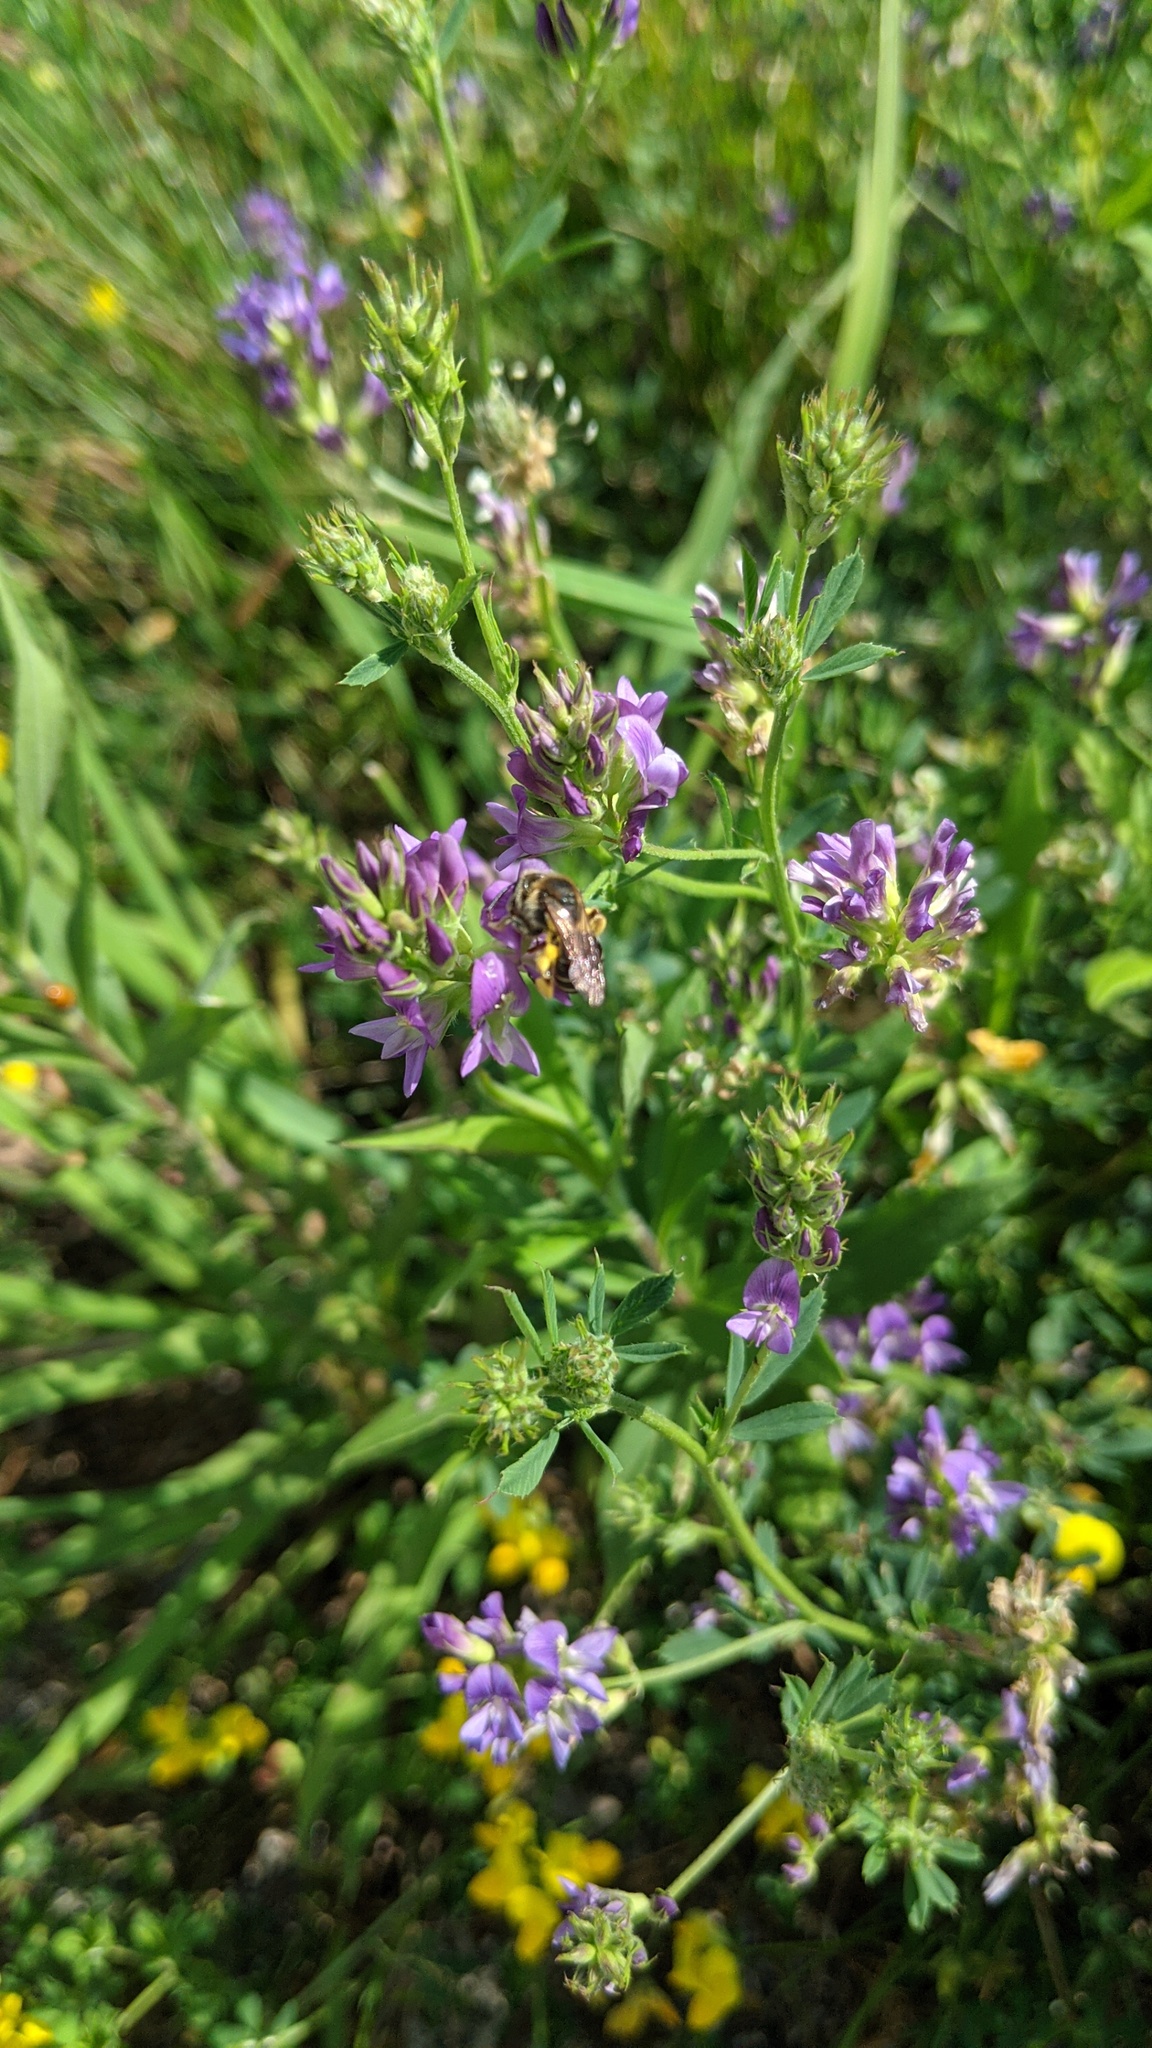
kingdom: Animalia
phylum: Arthropoda
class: Insecta
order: Hymenoptera
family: Andrenidae
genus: Andrena
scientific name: Andrena wilkella
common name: Wilke's mining bee
